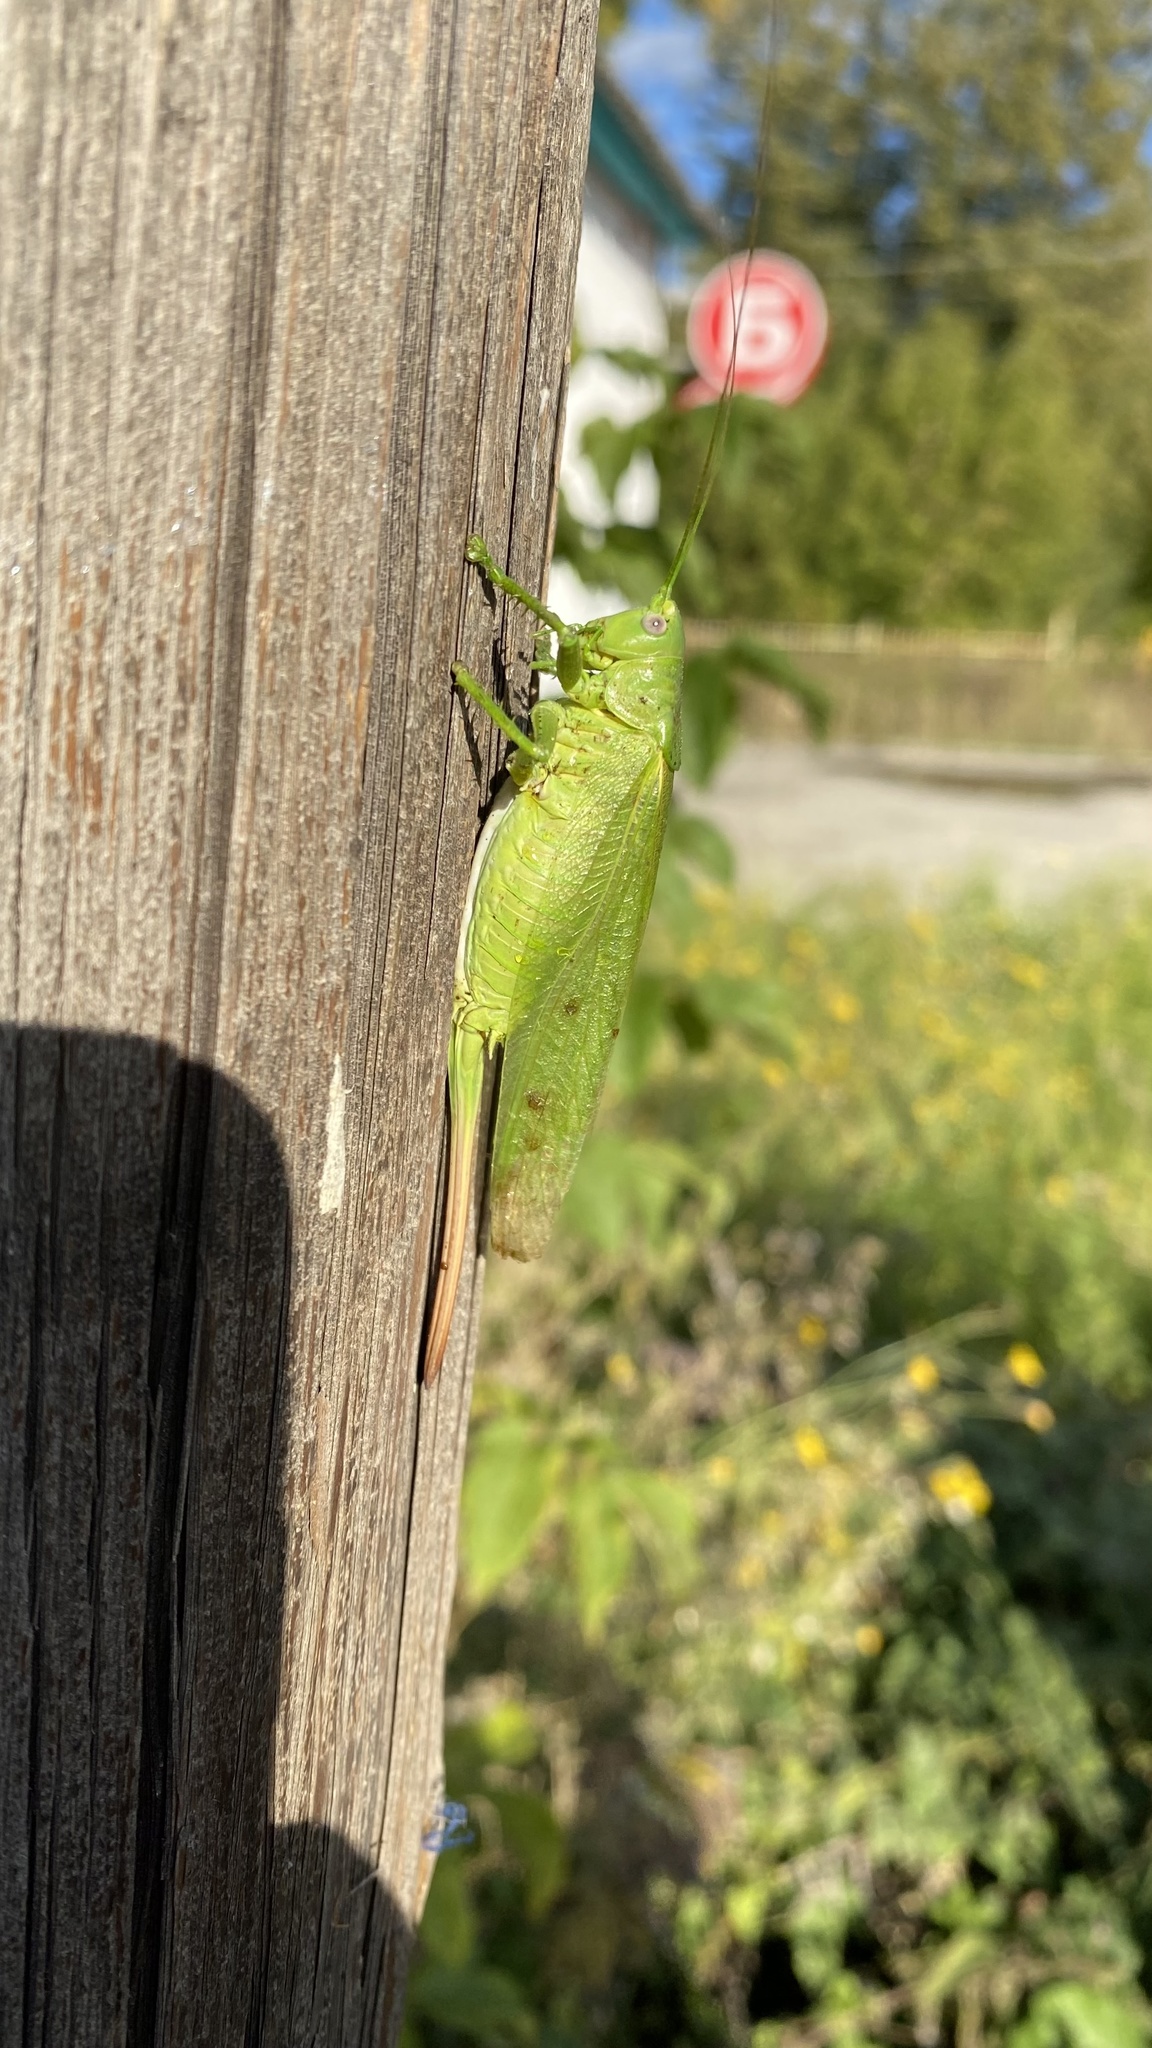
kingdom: Animalia
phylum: Arthropoda
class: Insecta
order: Orthoptera
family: Tettigoniidae
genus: Tettigonia
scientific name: Tettigonia caudata
